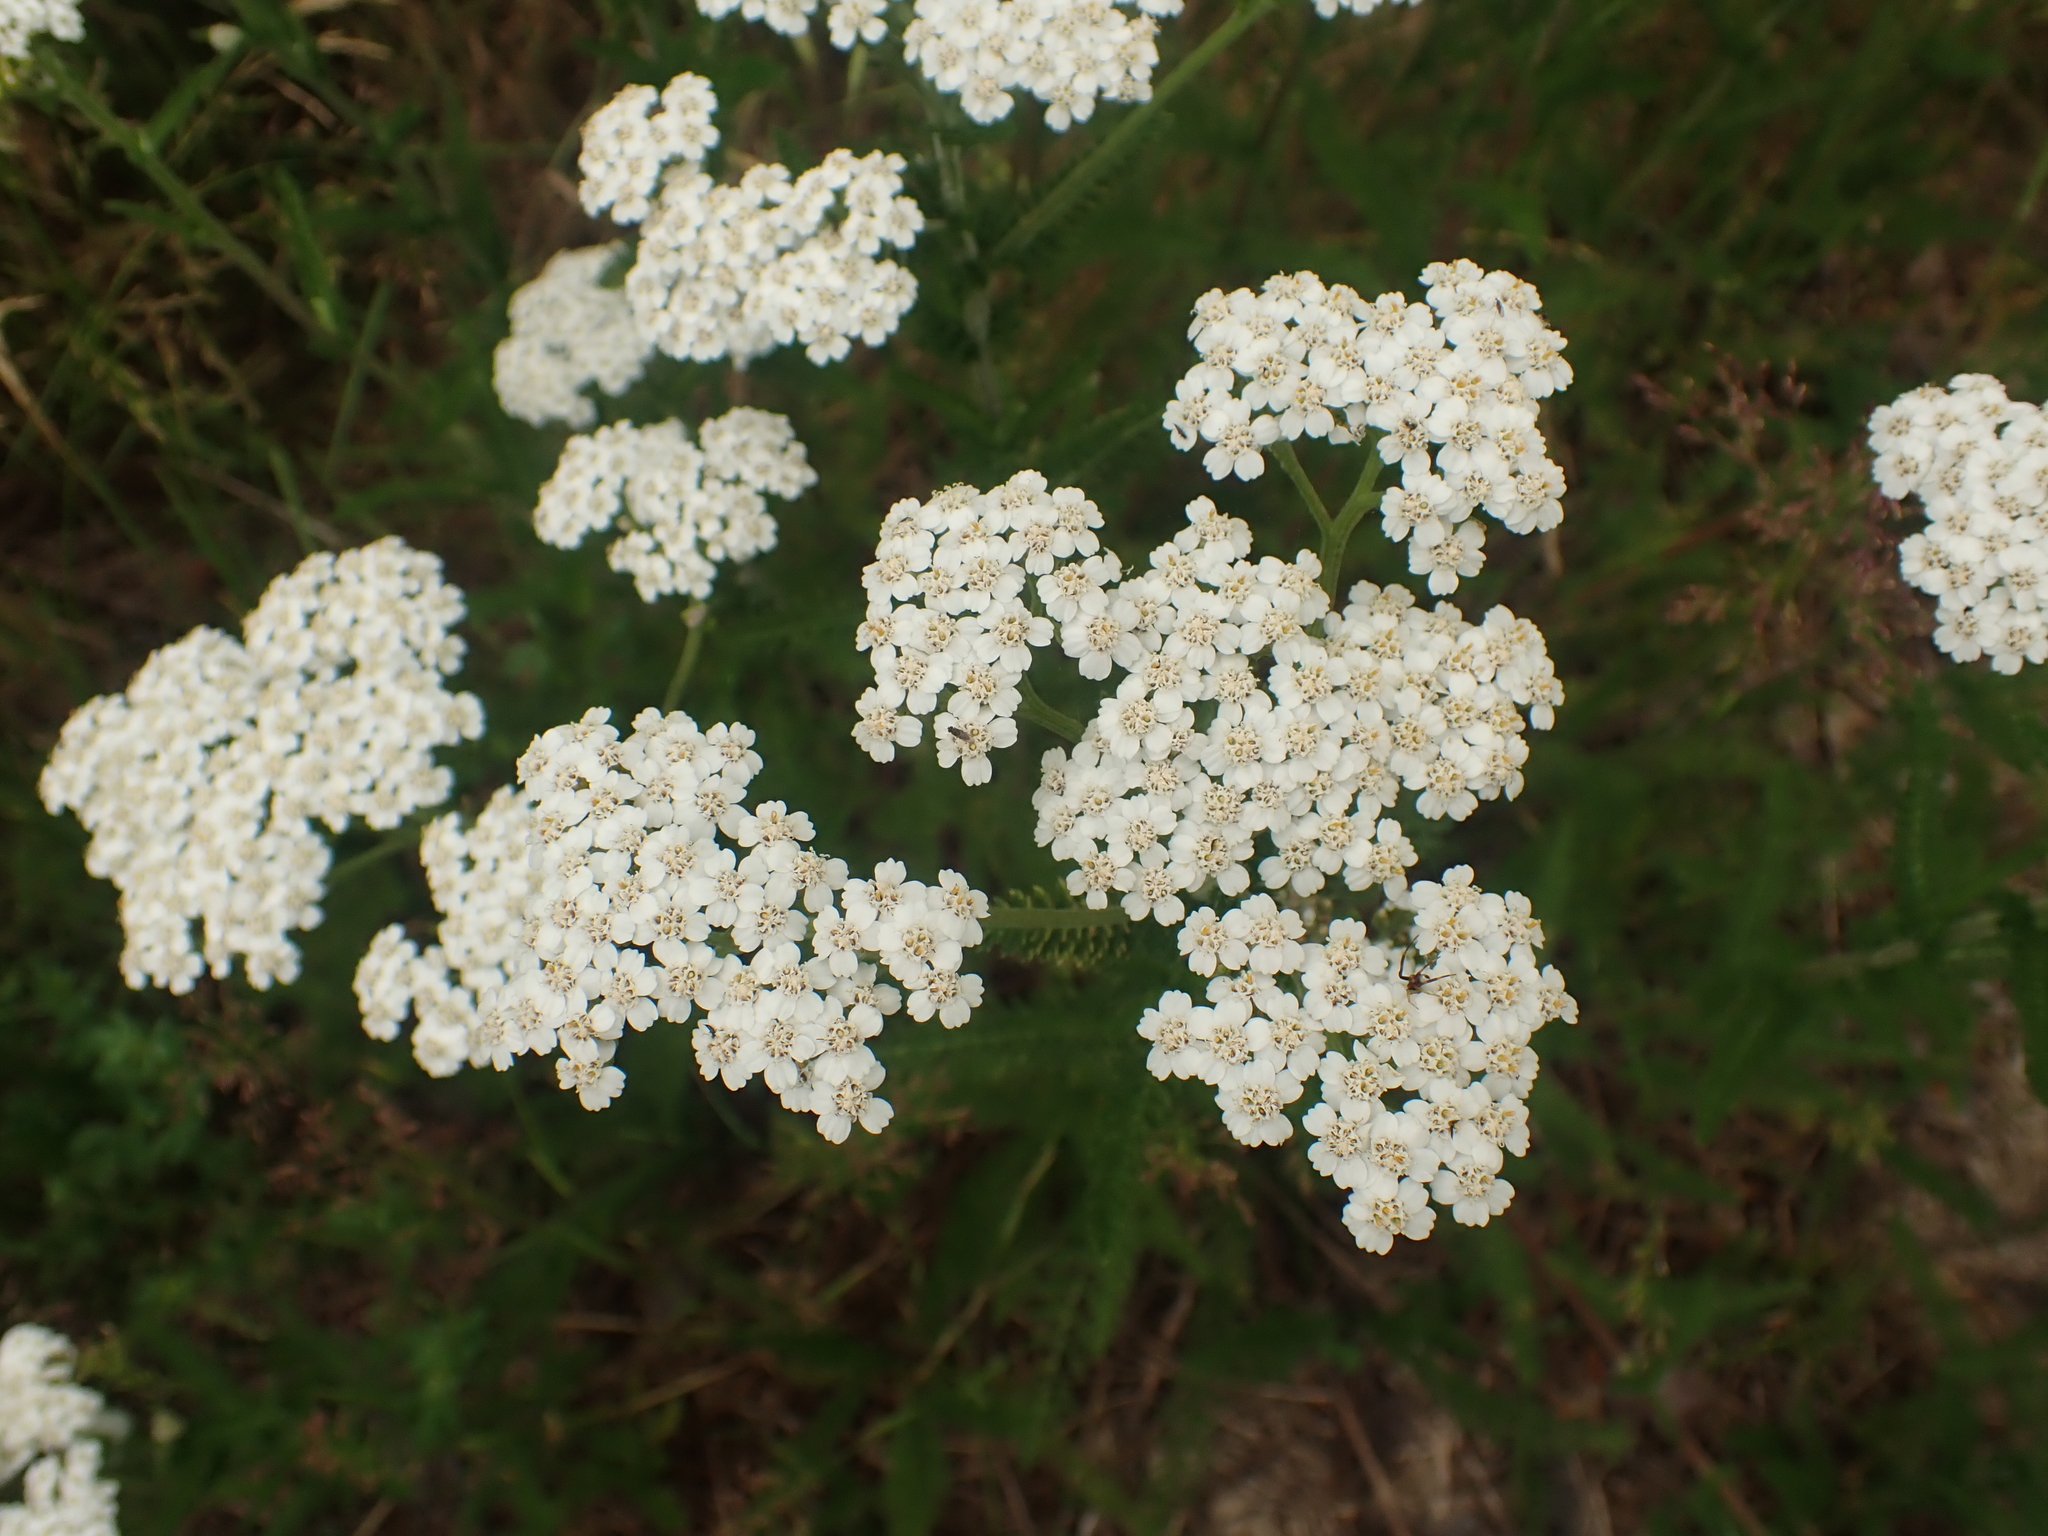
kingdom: Plantae
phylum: Tracheophyta
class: Magnoliopsida
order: Asterales
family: Asteraceae
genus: Achillea
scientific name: Achillea millefolium
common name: Yarrow
